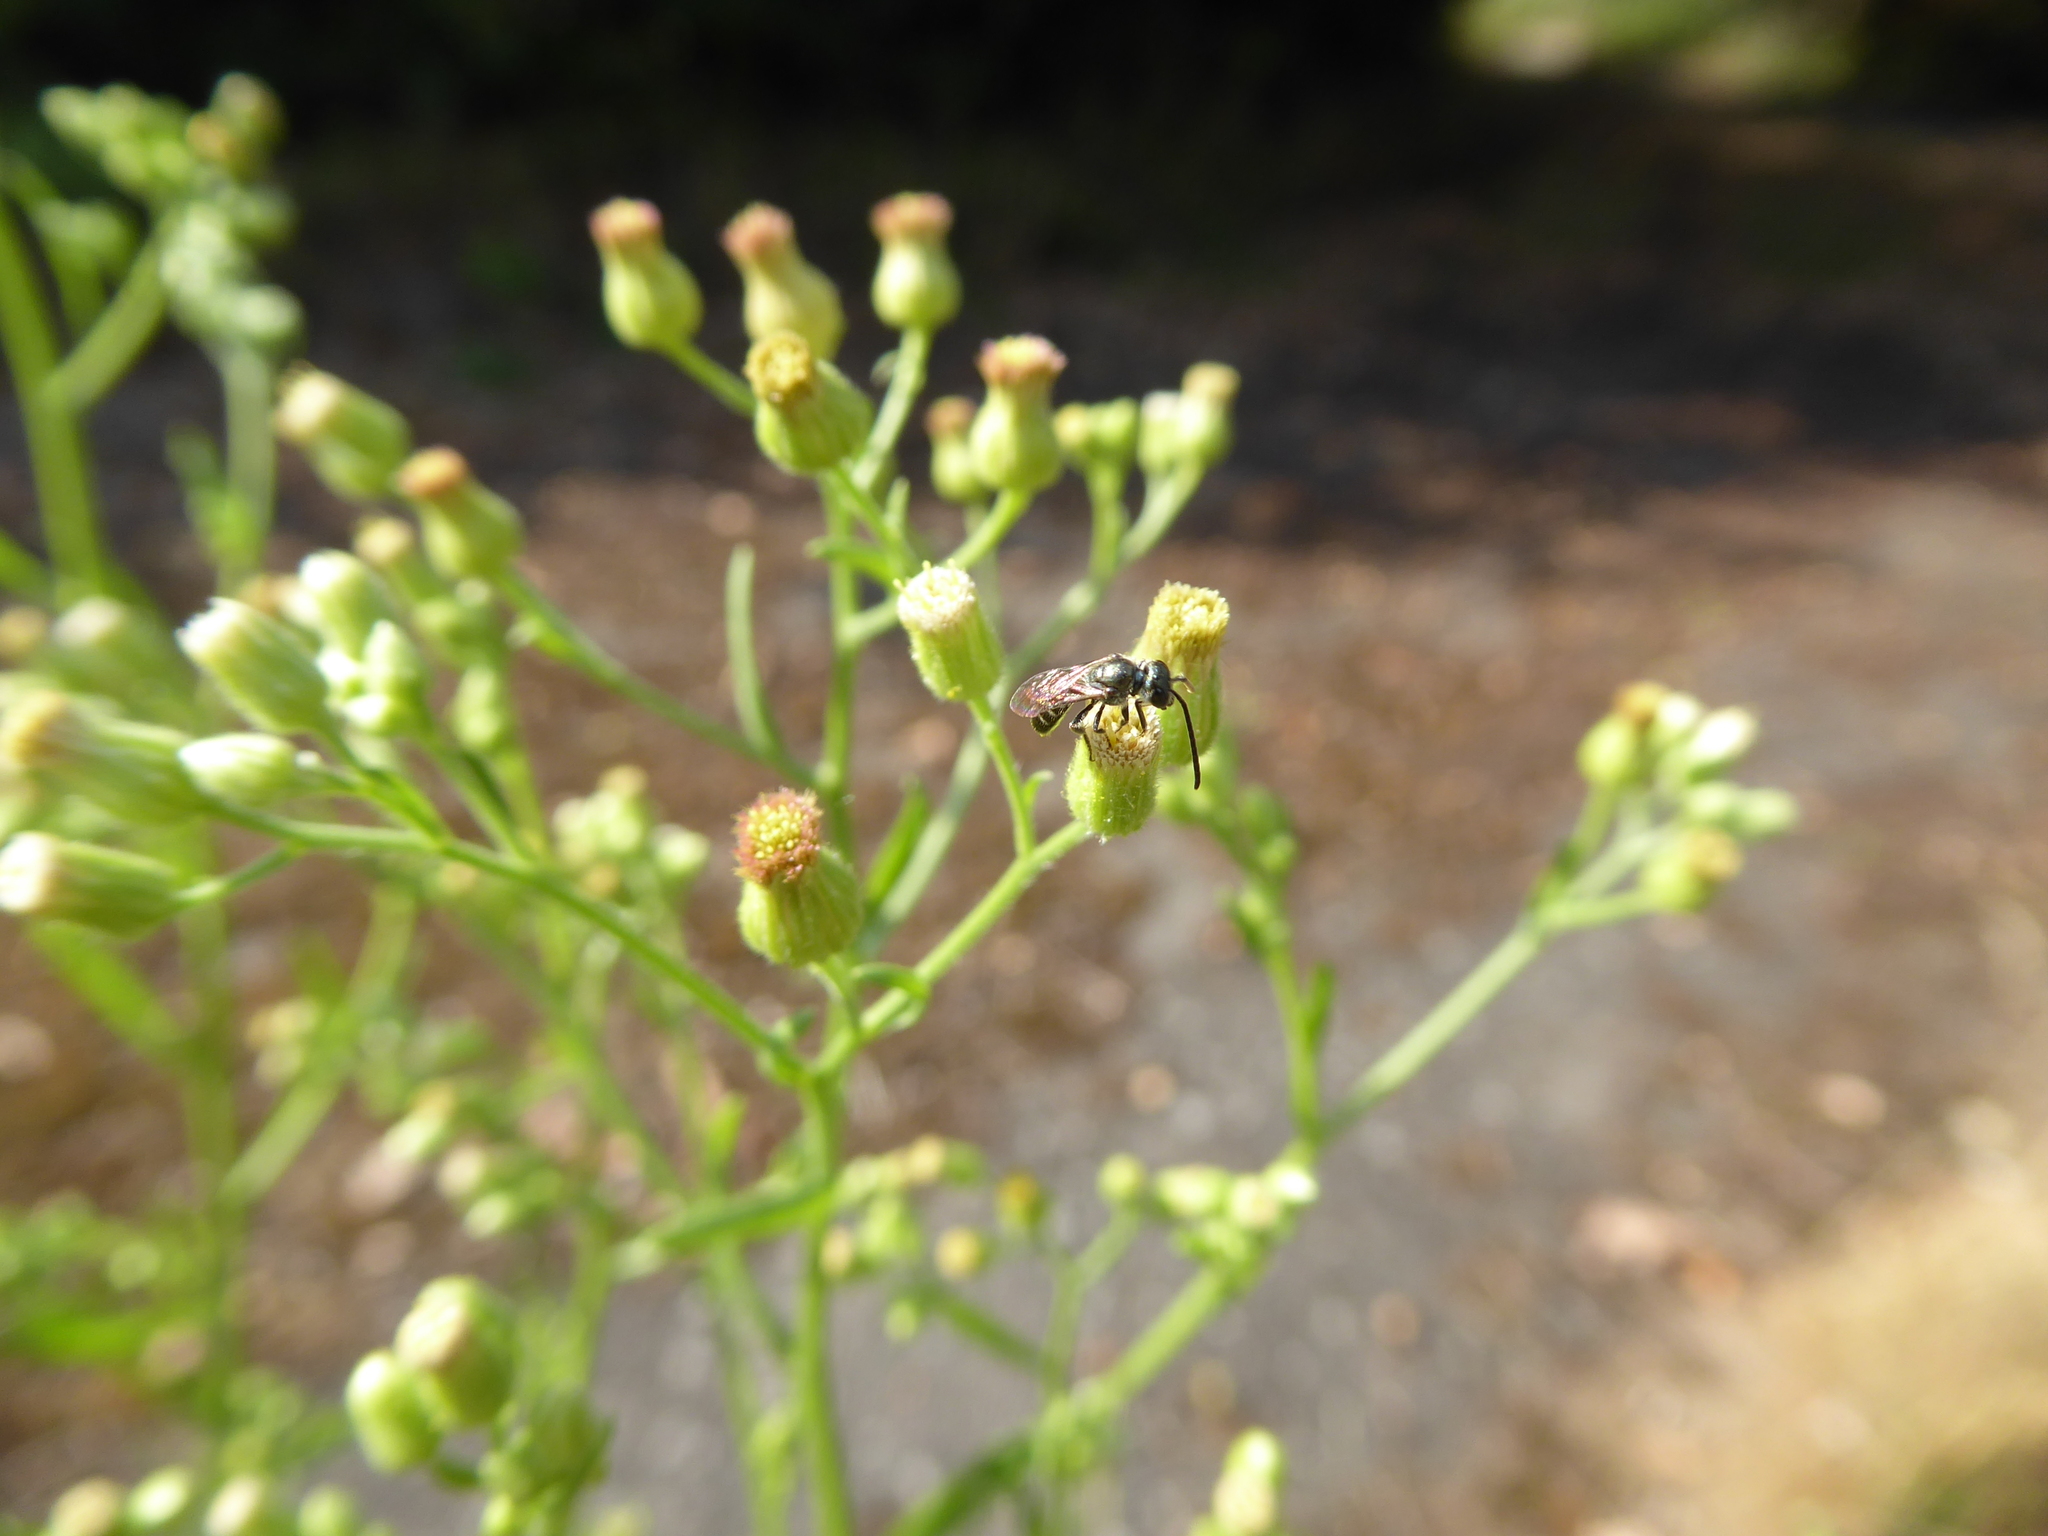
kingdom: Plantae
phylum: Tracheophyta
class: Magnoliopsida
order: Asterales
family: Asteraceae
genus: Erigeron
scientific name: Erigeron sumatrensis
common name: Daisy
